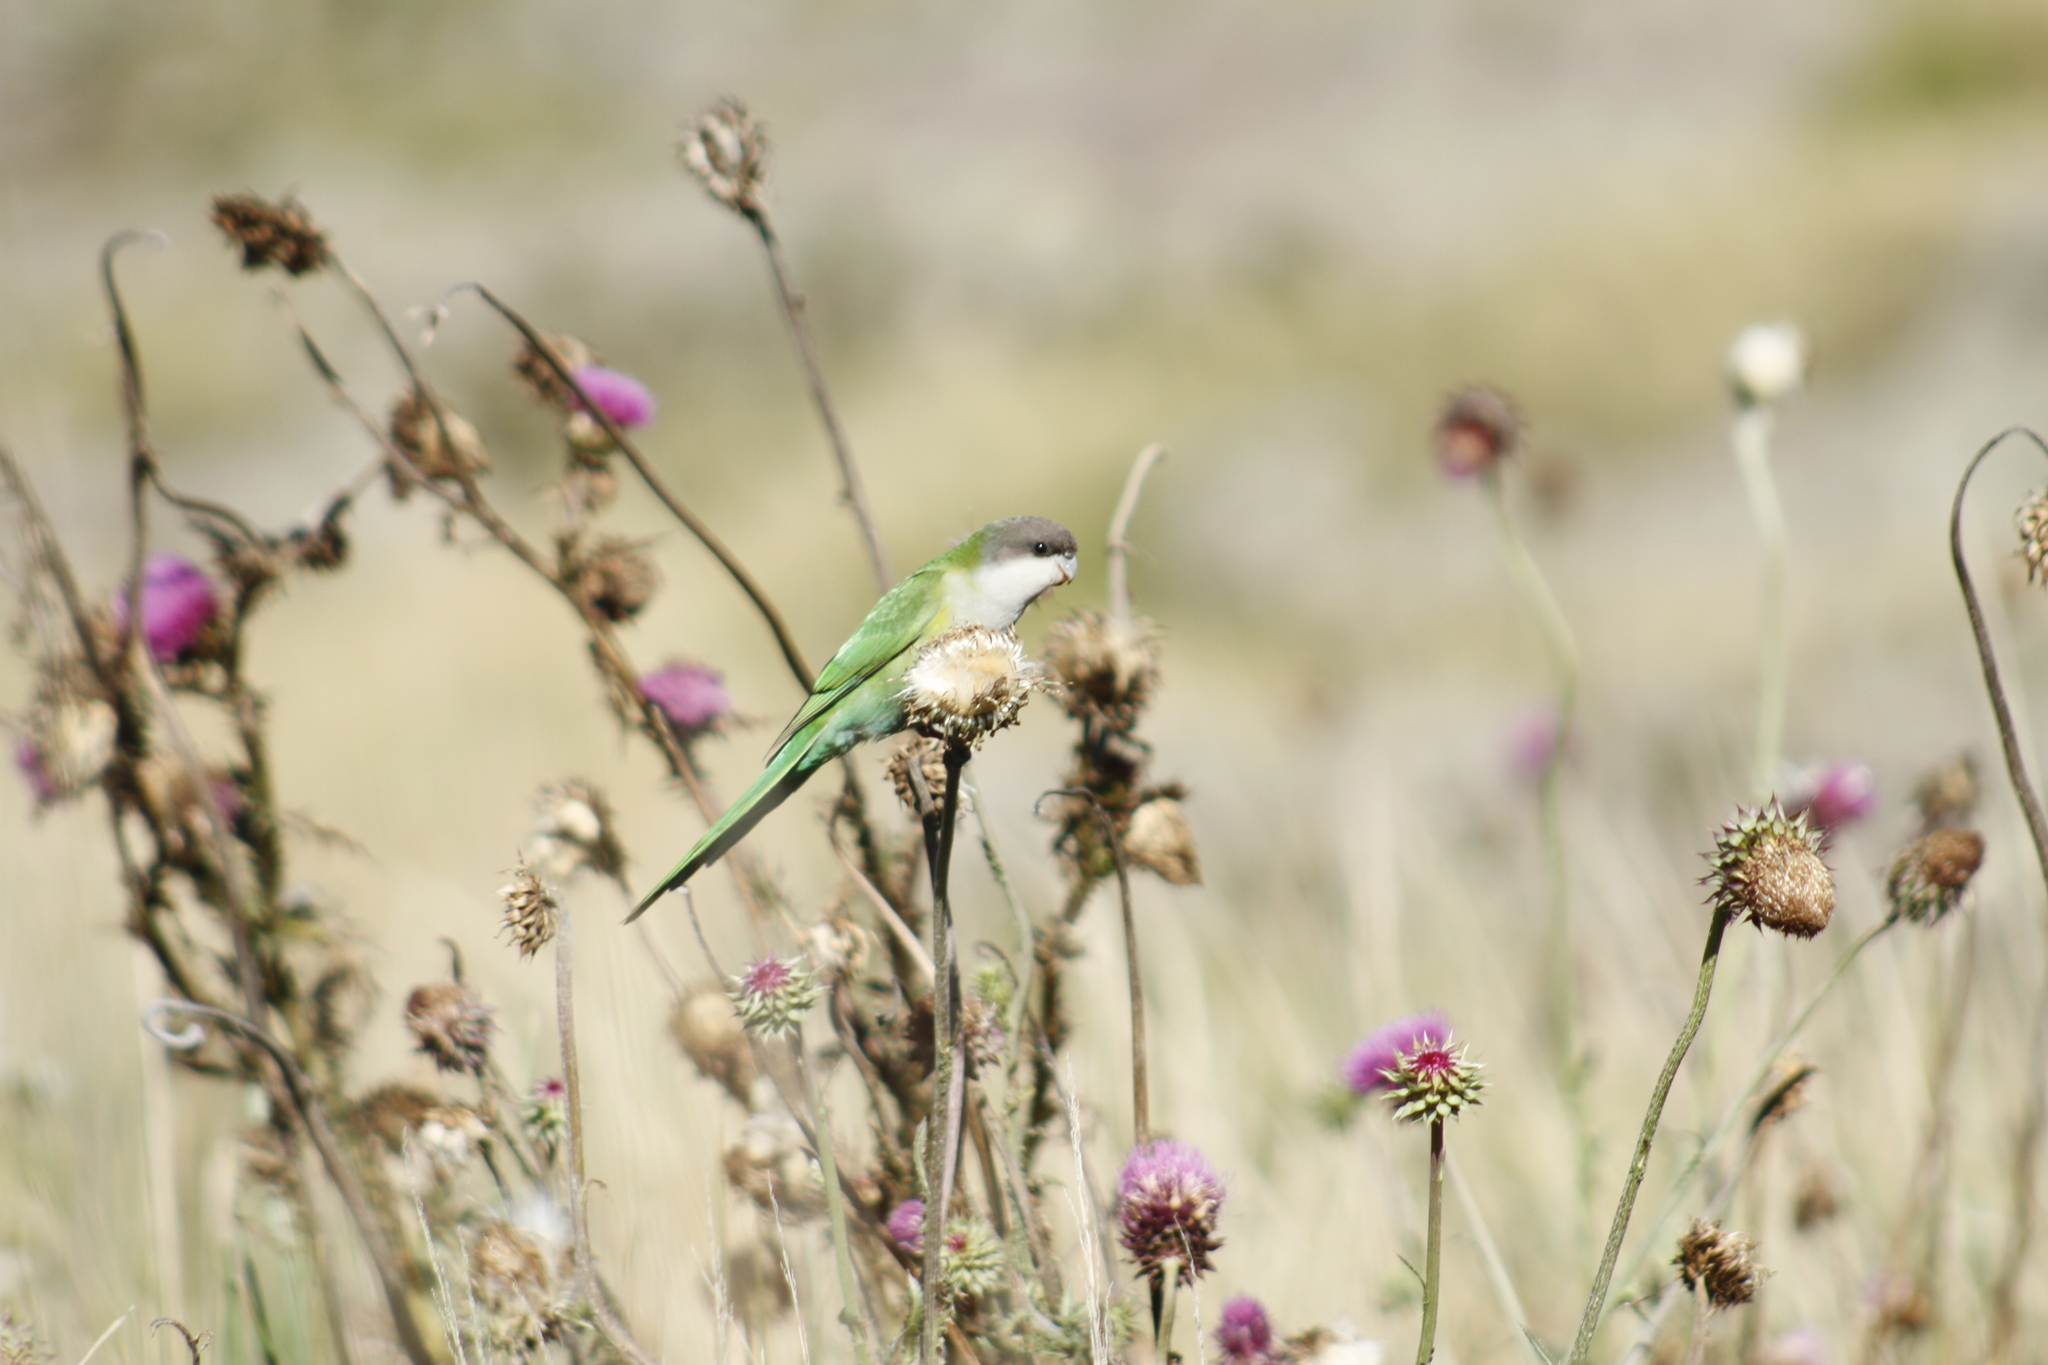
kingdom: Animalia
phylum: Chordata
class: Aves
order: Psittaciformes
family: Psittacidae
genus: Psilopsiagon
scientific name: Psilopsiagon aymara
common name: Grey-hooded parakeet
